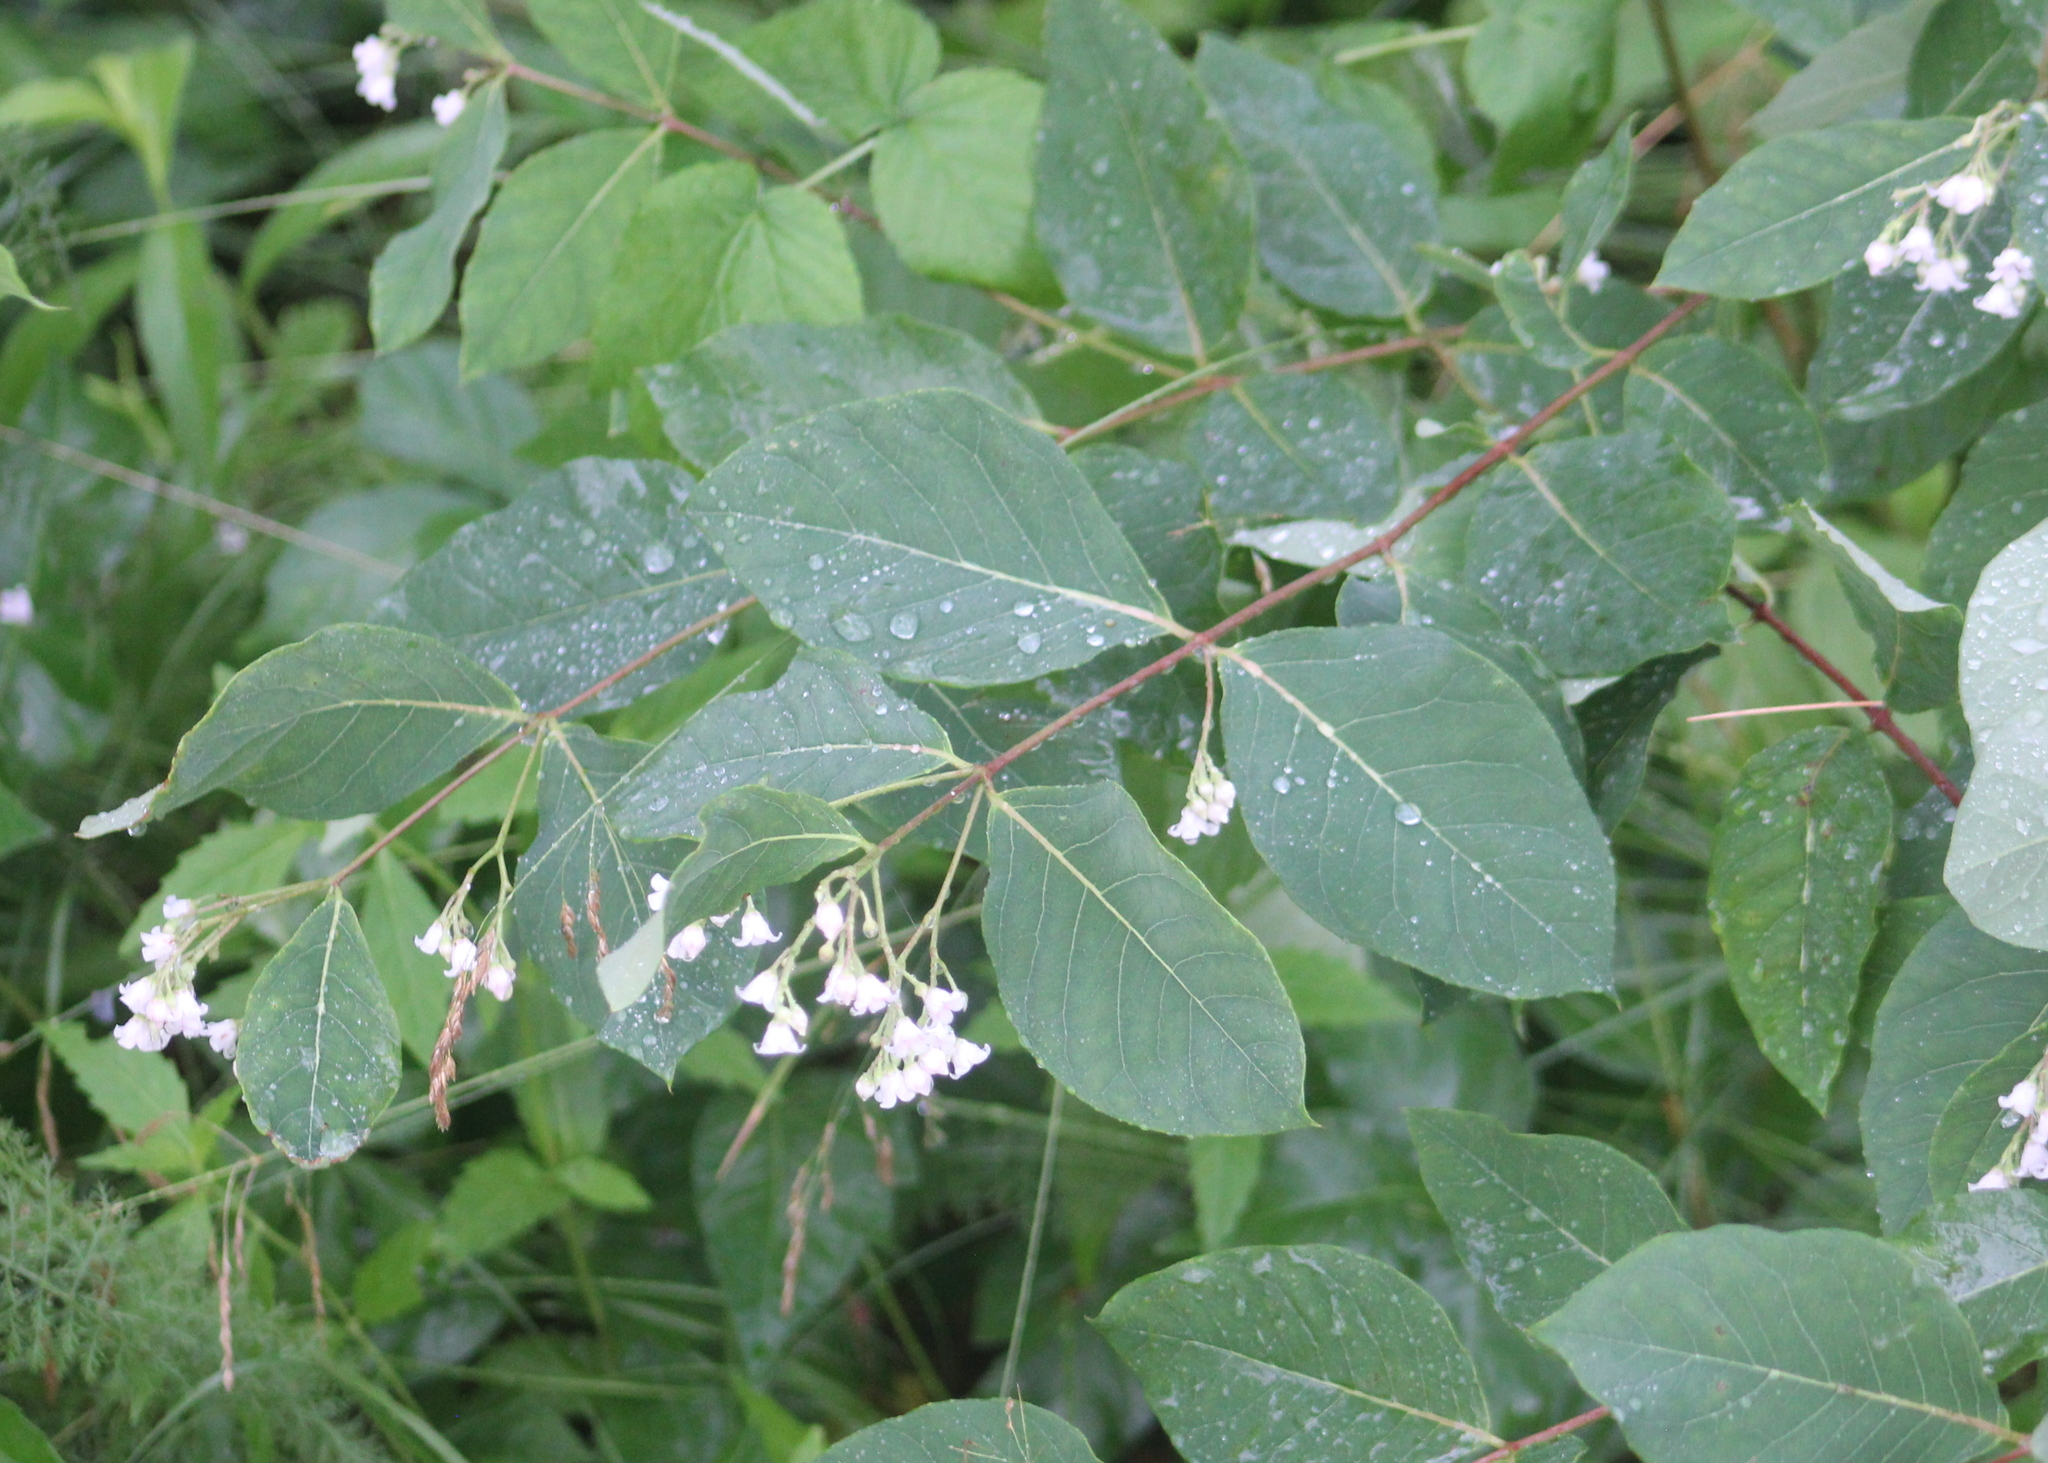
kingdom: Plantae
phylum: Tracheophyta
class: Magnoliopsida
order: Gentianales
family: Apocynaceae
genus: Apocynum
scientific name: Apocynum androsaemifolium
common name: Spreading dogbane
